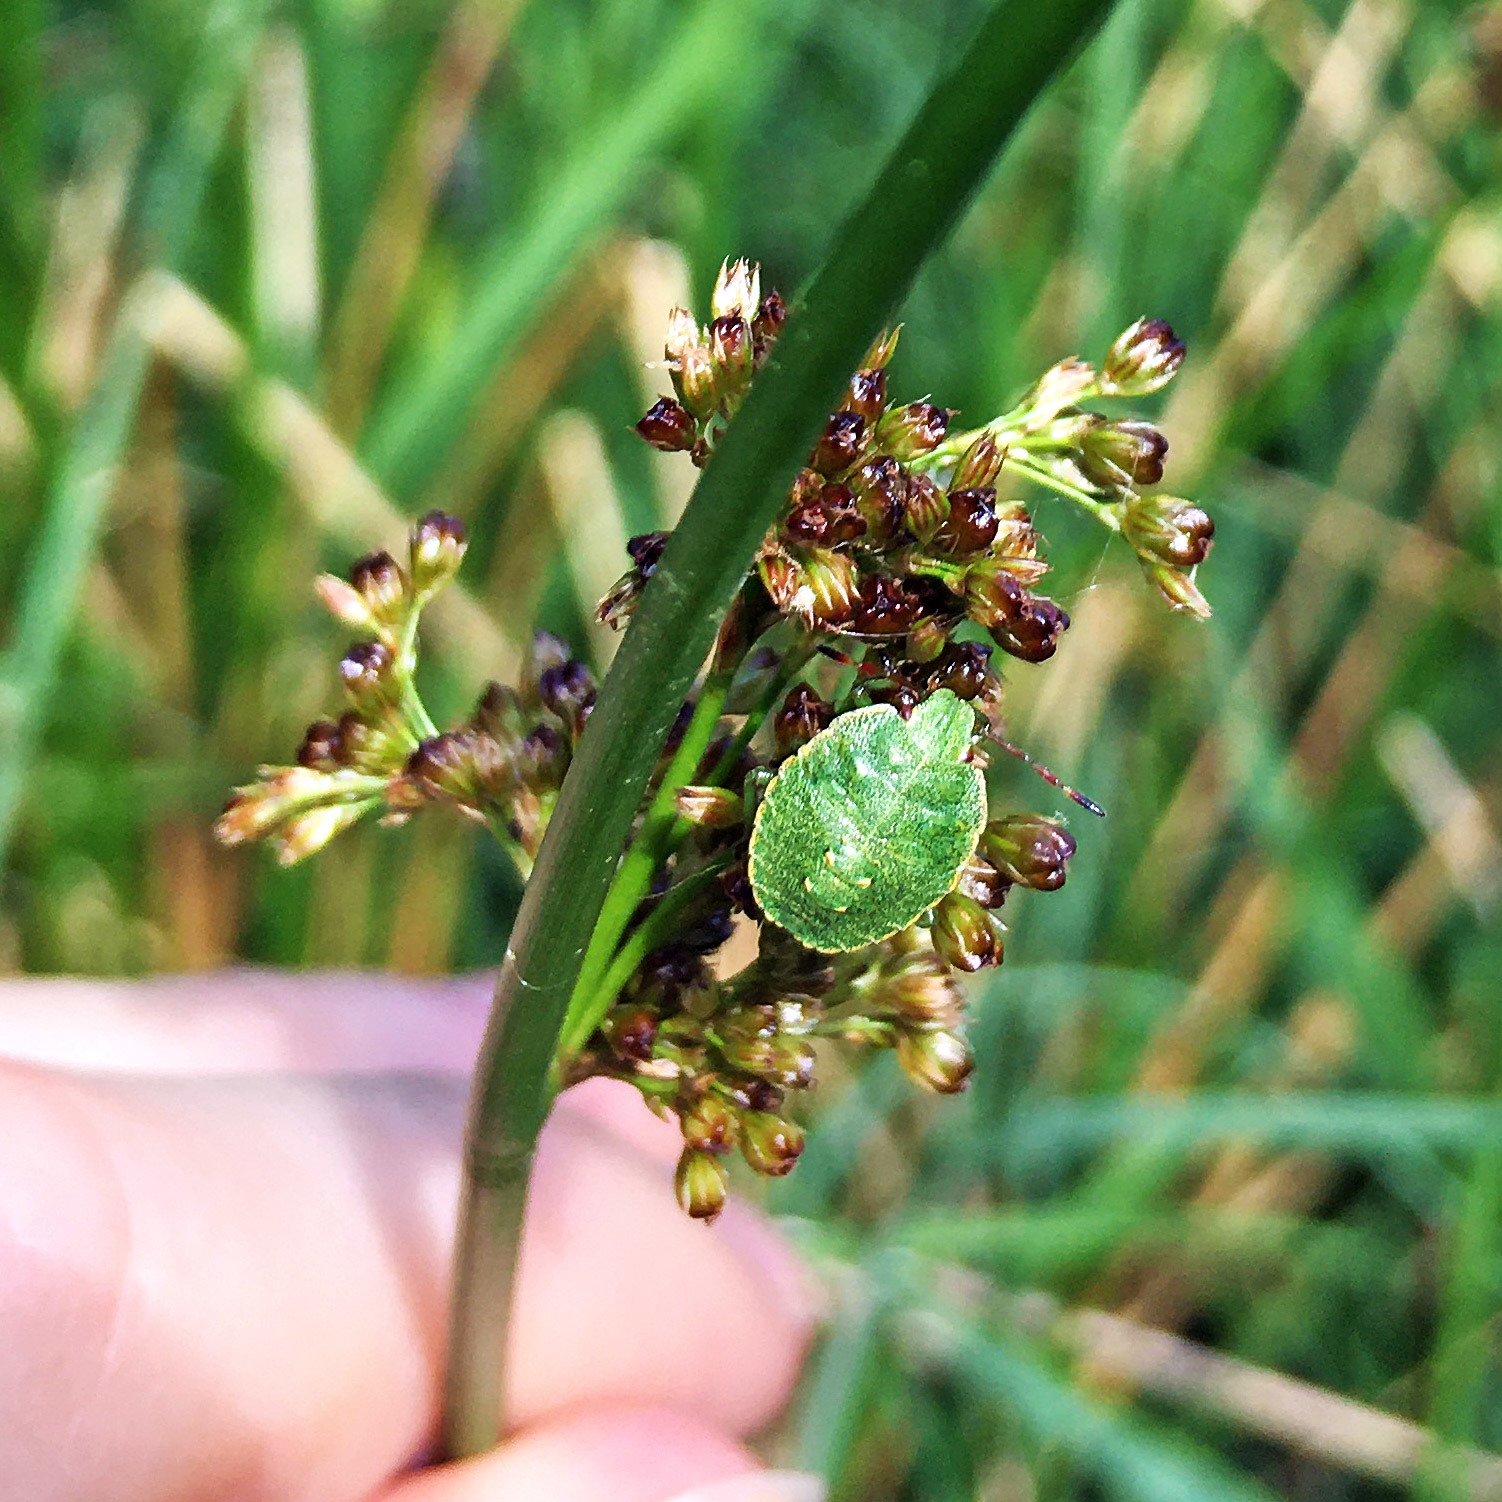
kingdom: Animalia
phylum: Arthropoda
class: Insecta
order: Hemiptera
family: Pentatomidae
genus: Palomena
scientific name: Palomena prasina
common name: Green shieldbug
